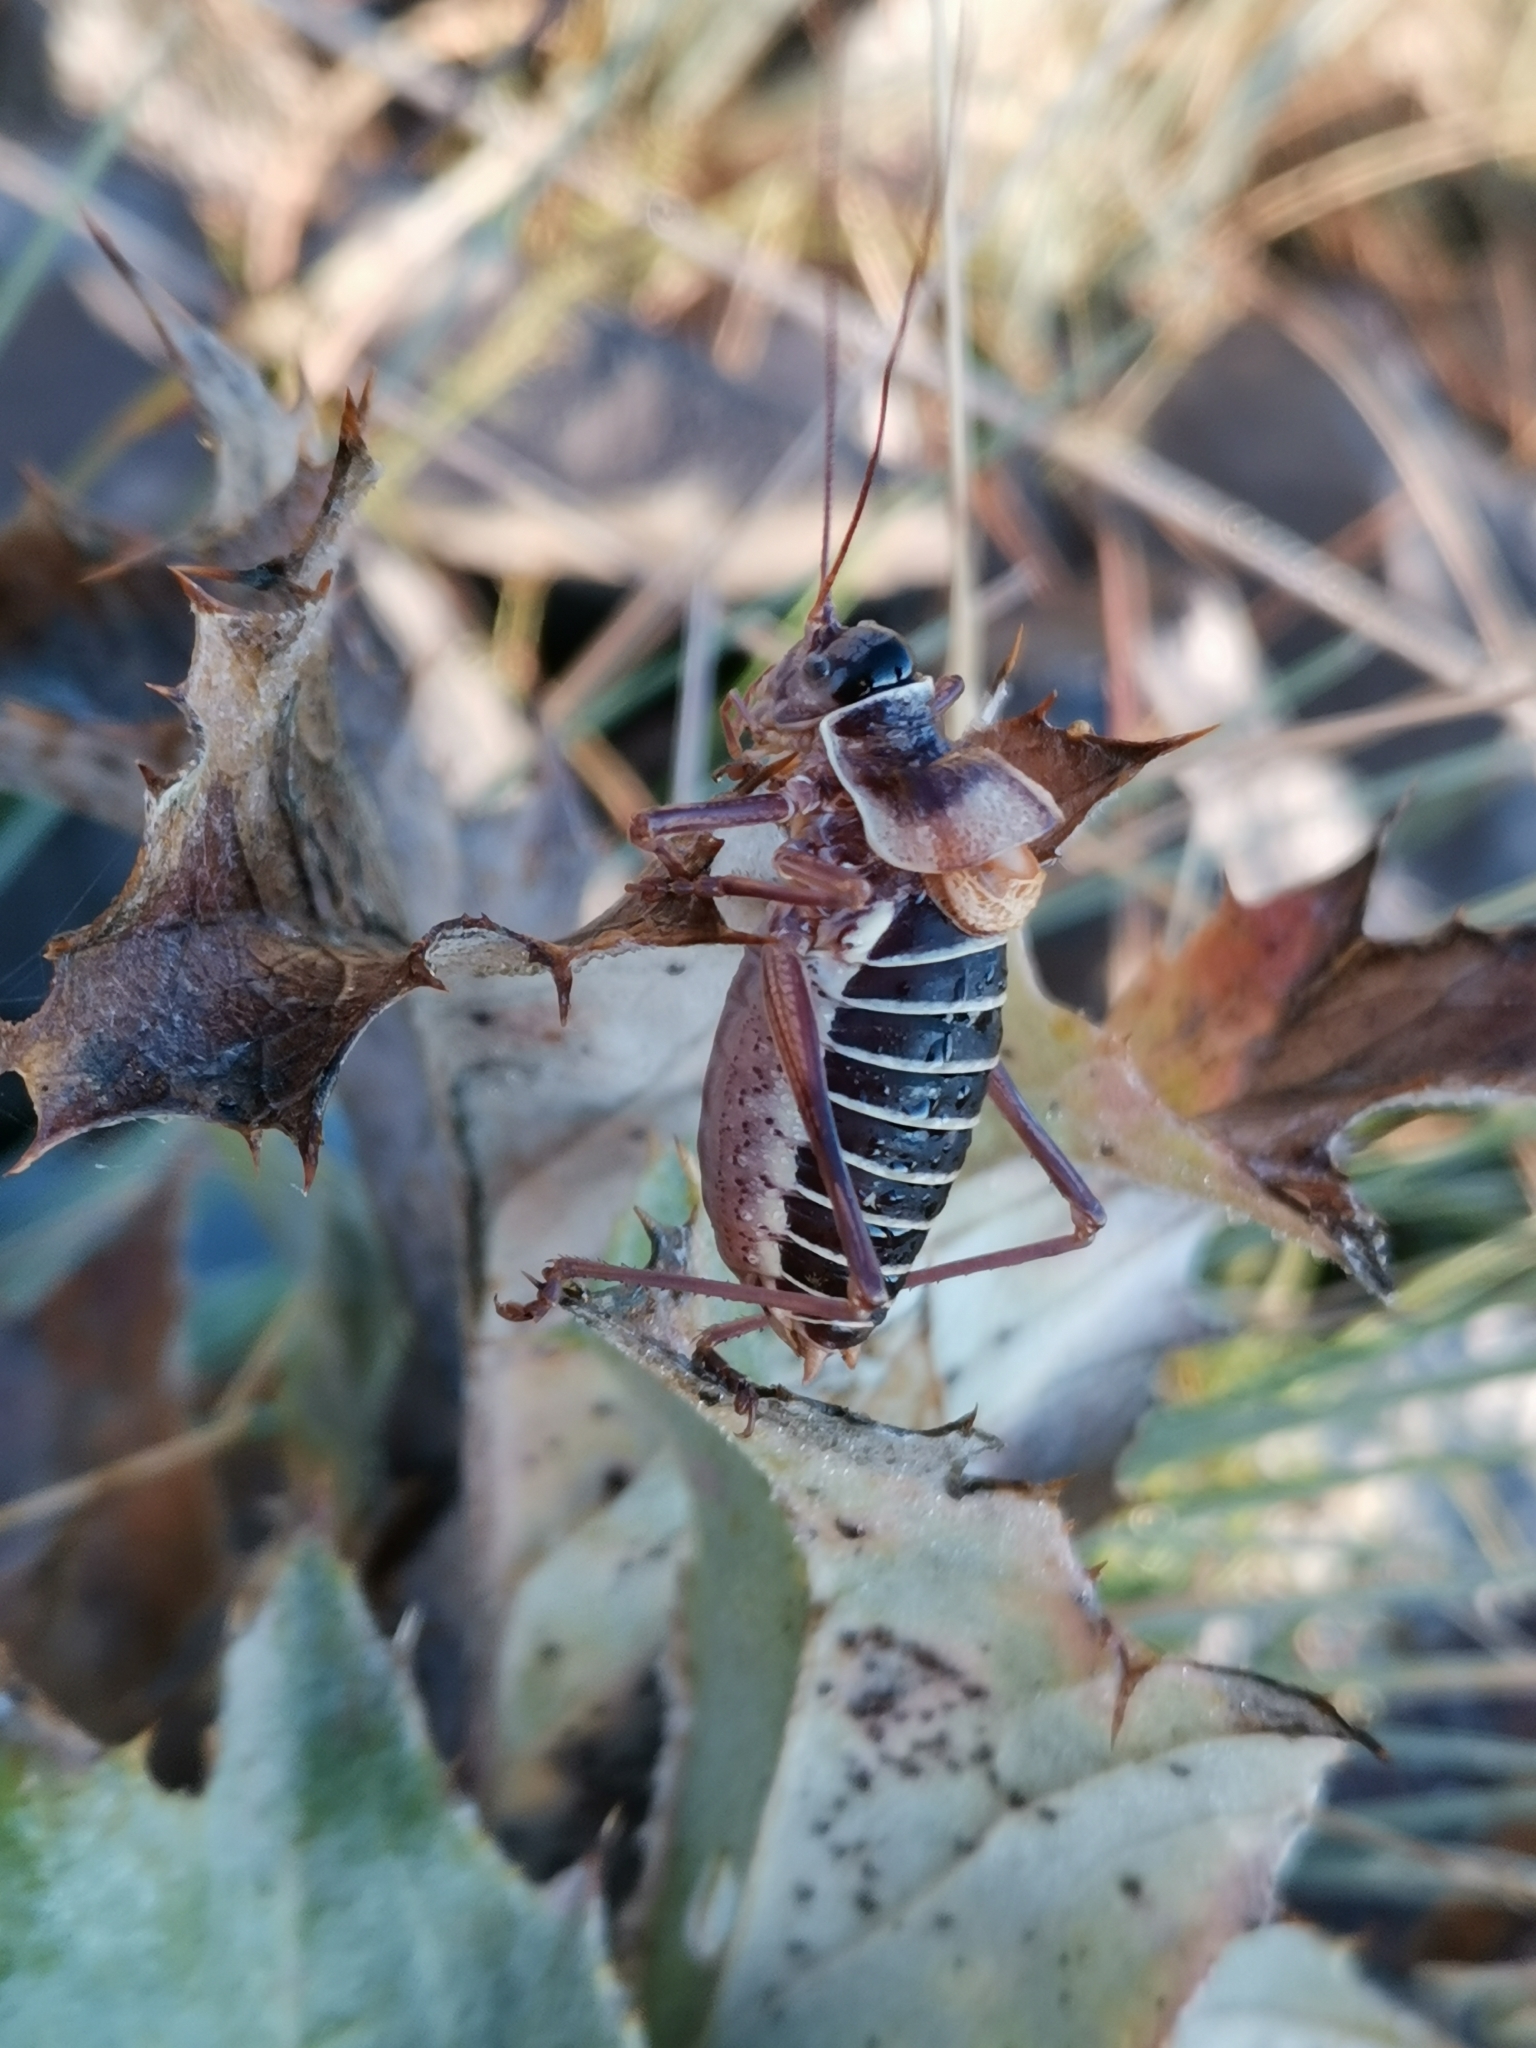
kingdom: Animalia
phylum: Arthropoda
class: Insecta
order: Orthoptera
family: Tettigoniidae
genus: Ephippiger
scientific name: Ephippiger diurnus
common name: Western saddle bush-cricket
